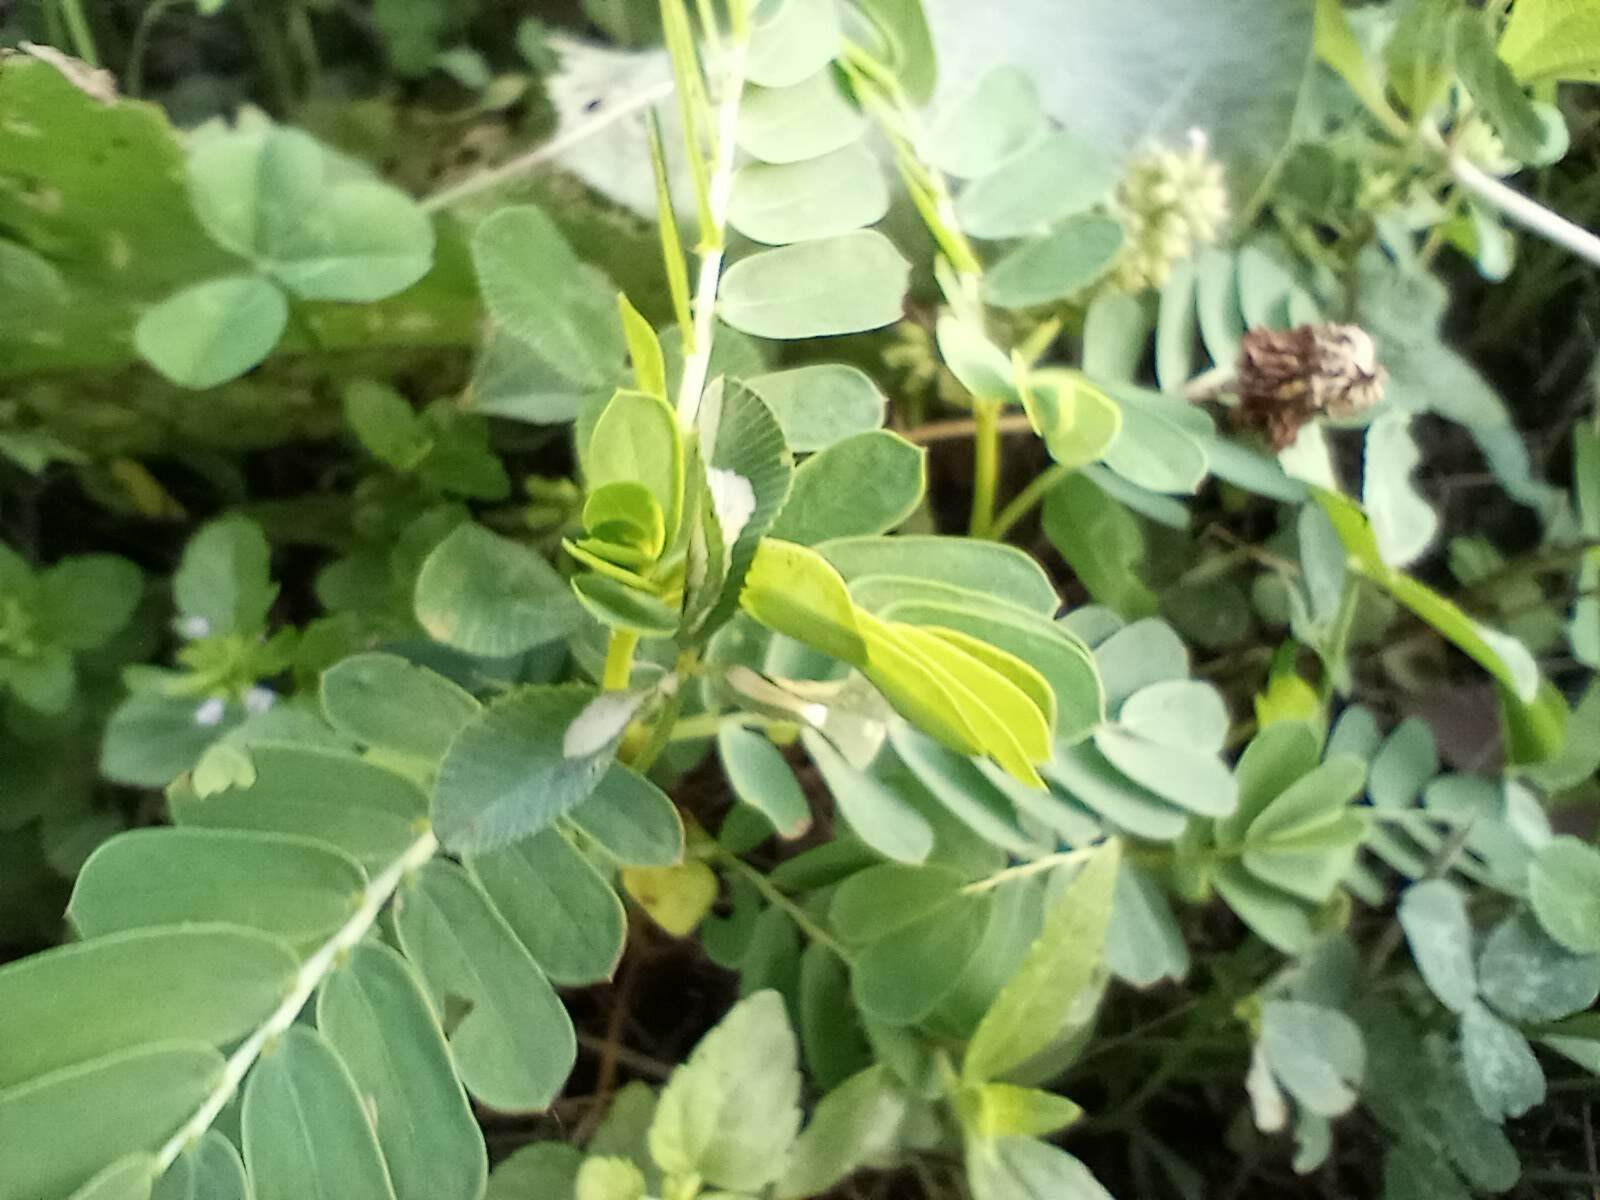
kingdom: Plantae
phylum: Tracheophyta
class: Magnoliopsida
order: Malpighiales
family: Phyllanthaceae
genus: Phyllanthus
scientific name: Phyllanthus urinaria
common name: Chamber bitter
